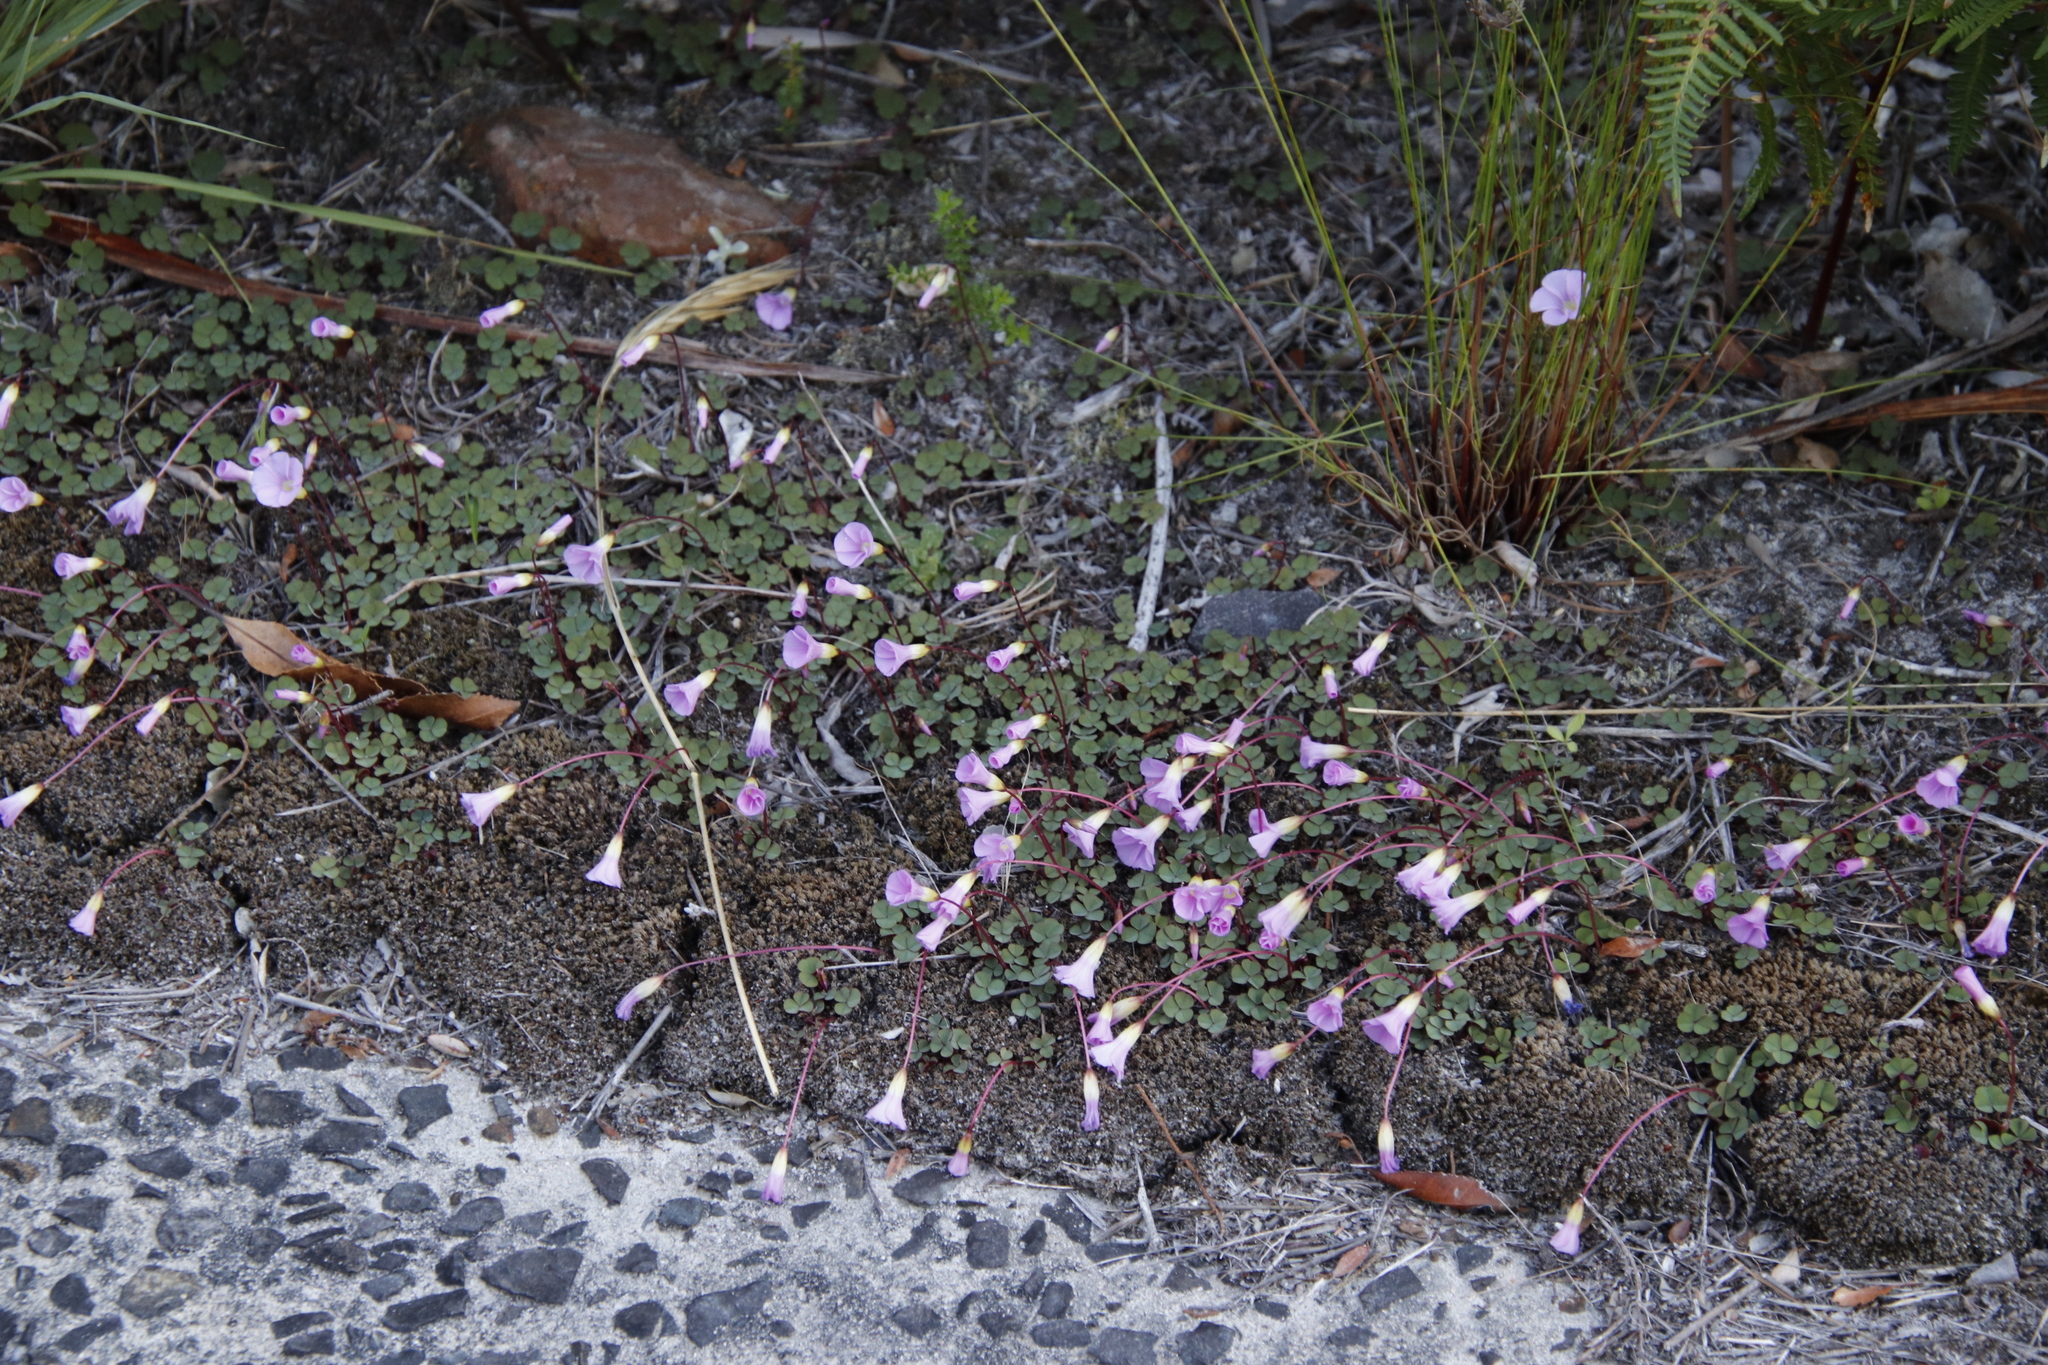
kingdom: Plantae
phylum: Tracheophyta
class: Magnoliopsida
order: Oxalidales
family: Oxalidaceae
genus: Oxalis
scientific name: Oxalis commutata
